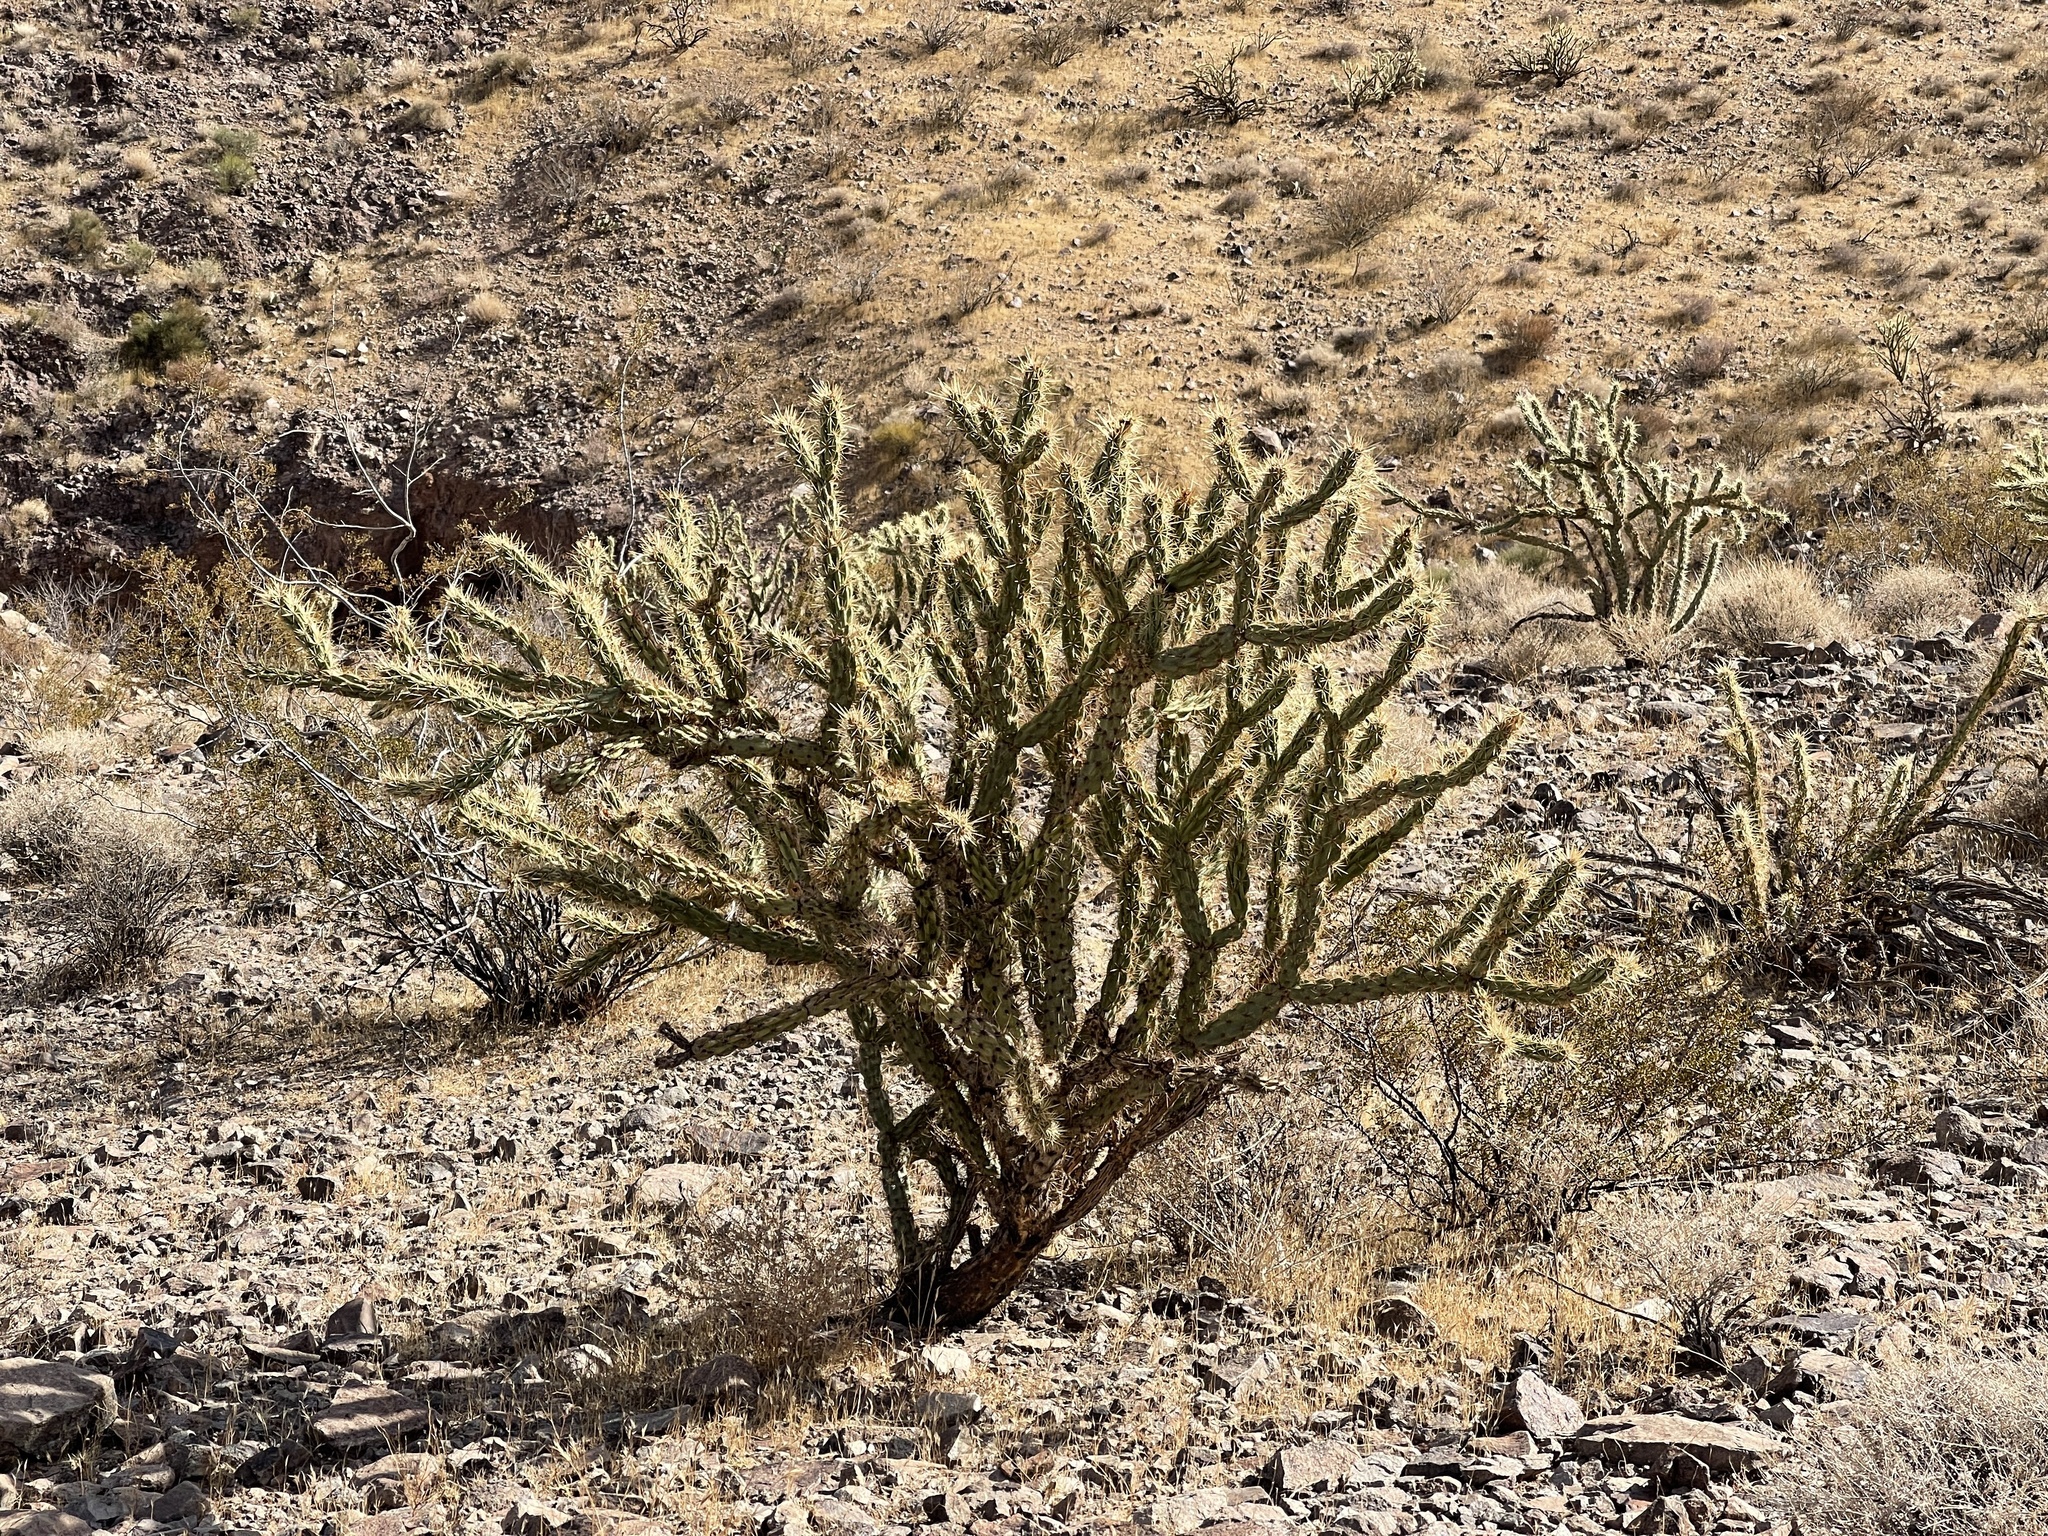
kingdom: Plantae
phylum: Tracheophyta
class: Magnoliopsida
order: Caryophyllales
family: Cactaceae
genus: Cylindropuntia
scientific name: Cylindropuntia acanthocarpa
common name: Buckhorn cholla
